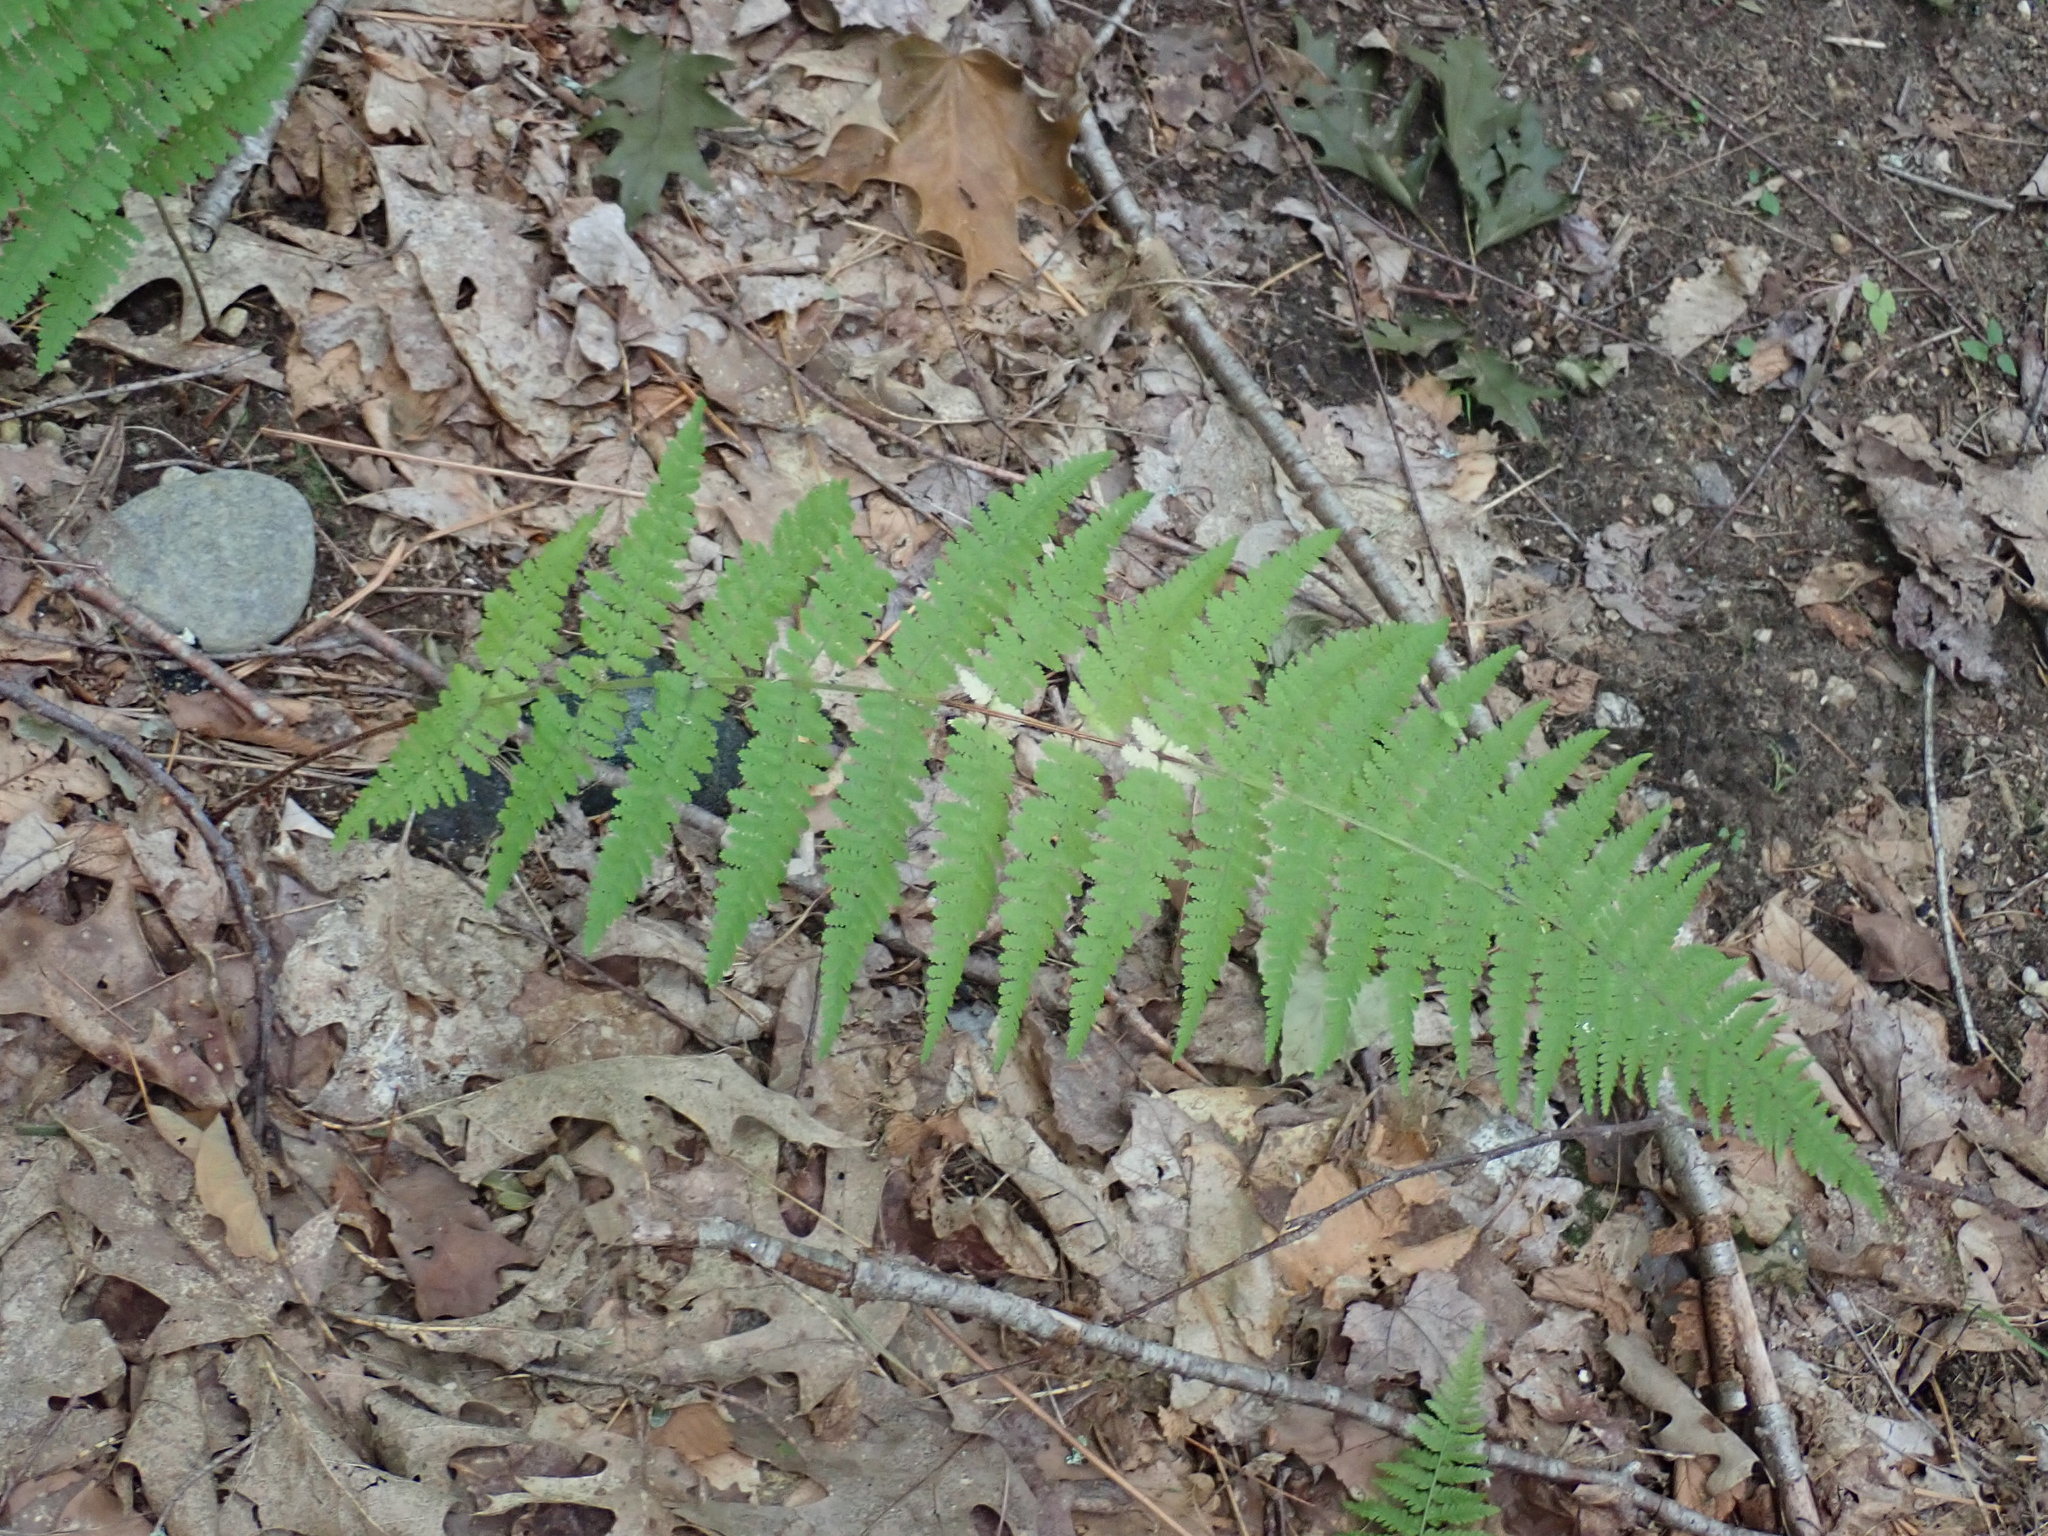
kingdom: Plantae
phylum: Tracheophyta
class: Polypodiopsida
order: Polypodiales
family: Dennstaedtiaceae
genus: Sitobolium
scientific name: Sitobolium punctilobum
